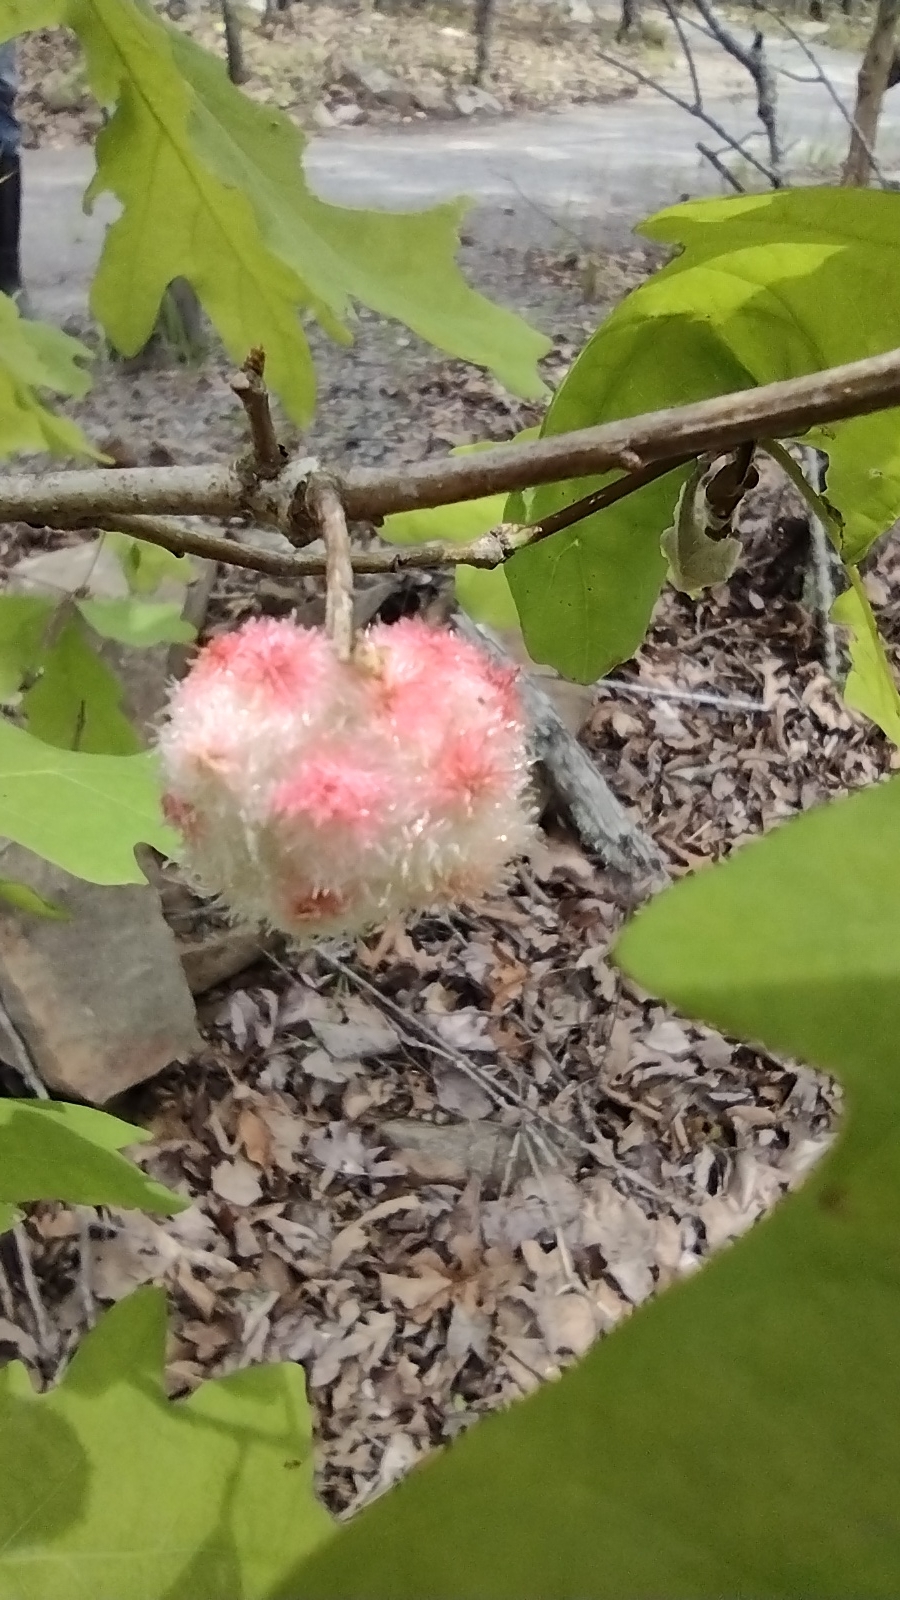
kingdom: Animalia
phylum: Arthropoda
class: Insecta
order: Hymenoptera
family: Cynipidae
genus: Callirhytis
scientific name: Callirhytis
